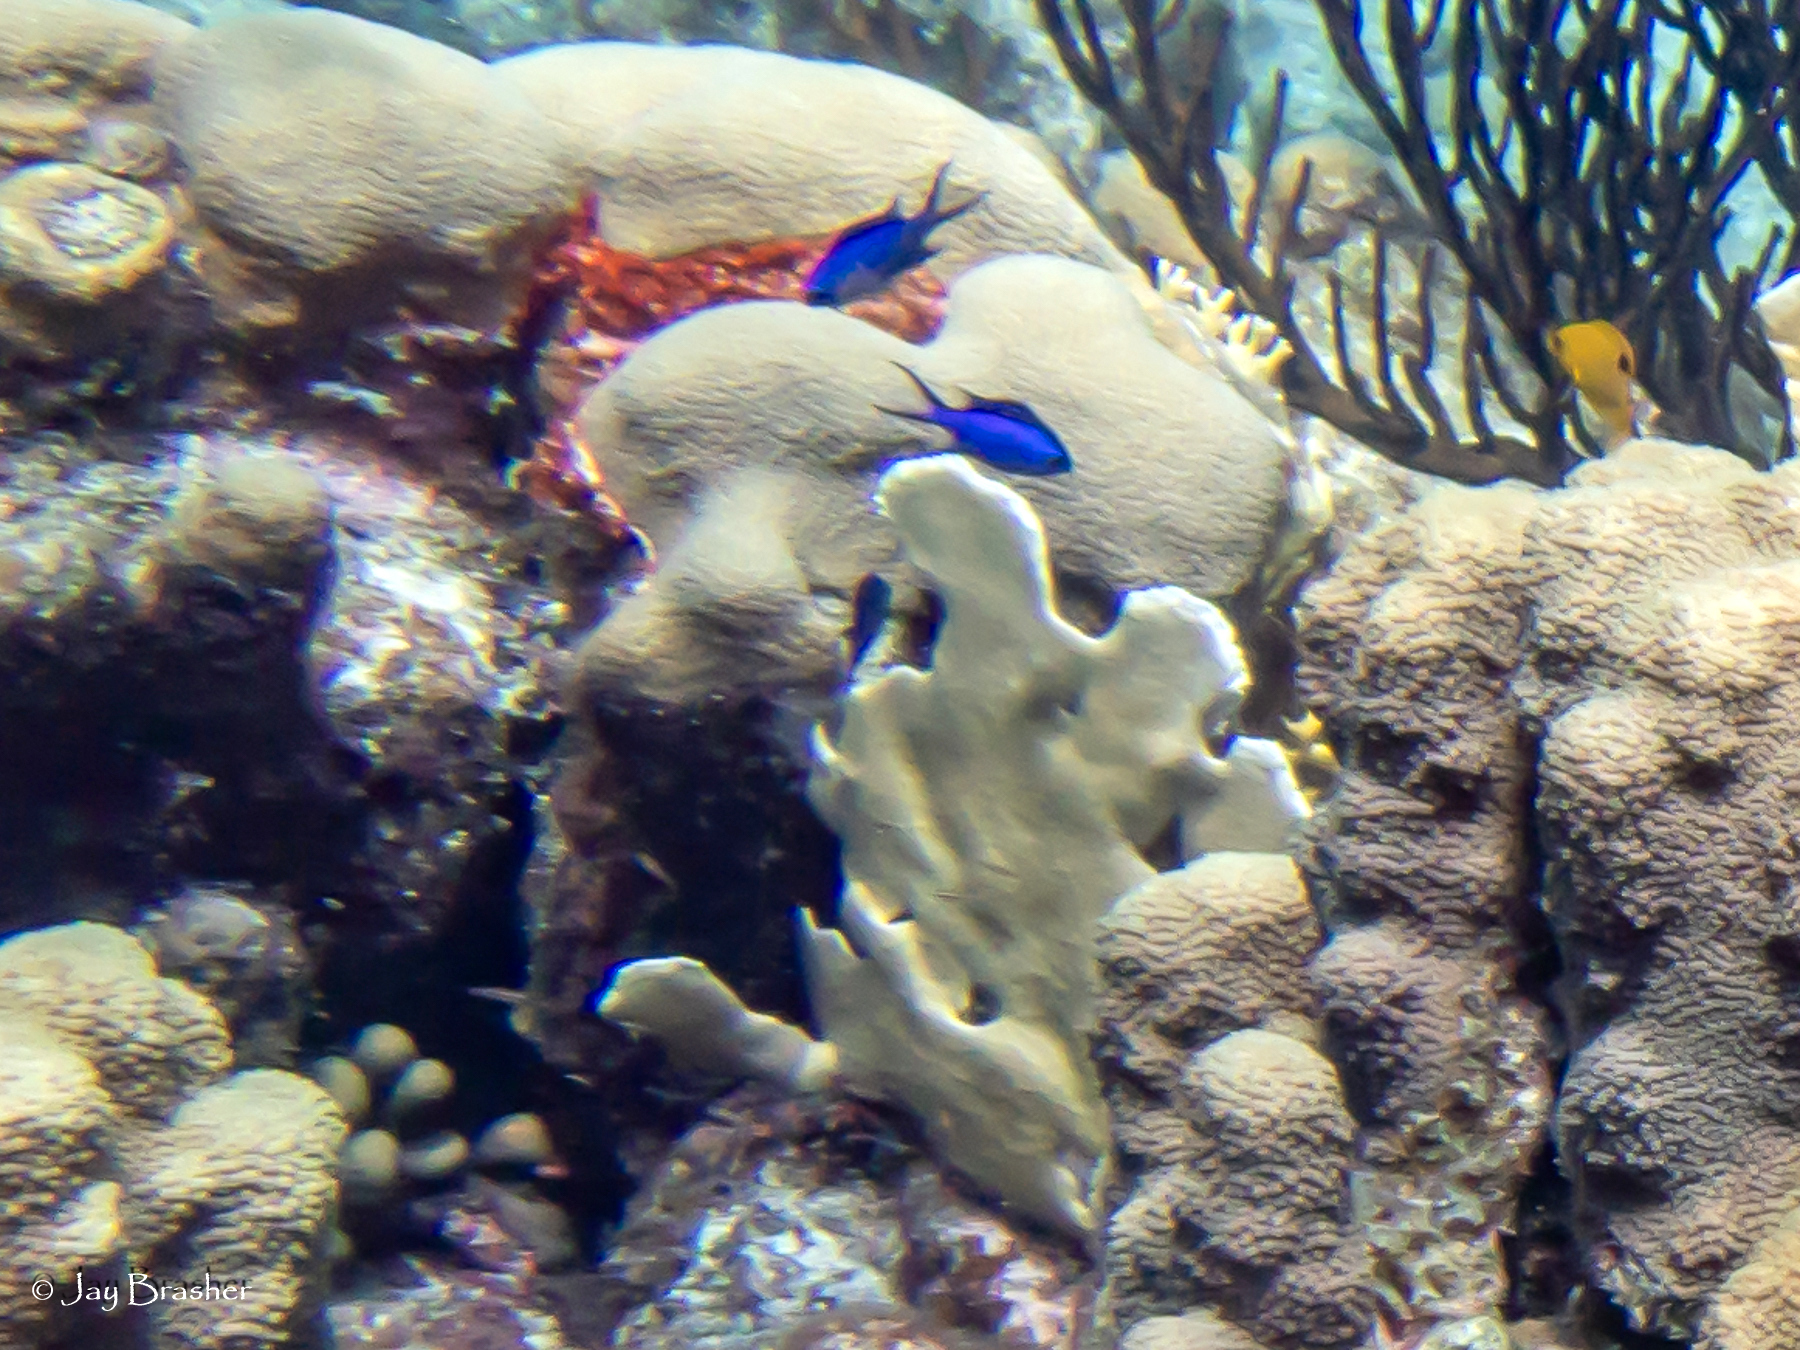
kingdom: Animalia
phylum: Chordata
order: Perciformes
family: Pomacentridae
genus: Chromis
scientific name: Chromis cyanea
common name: Blue chromis
